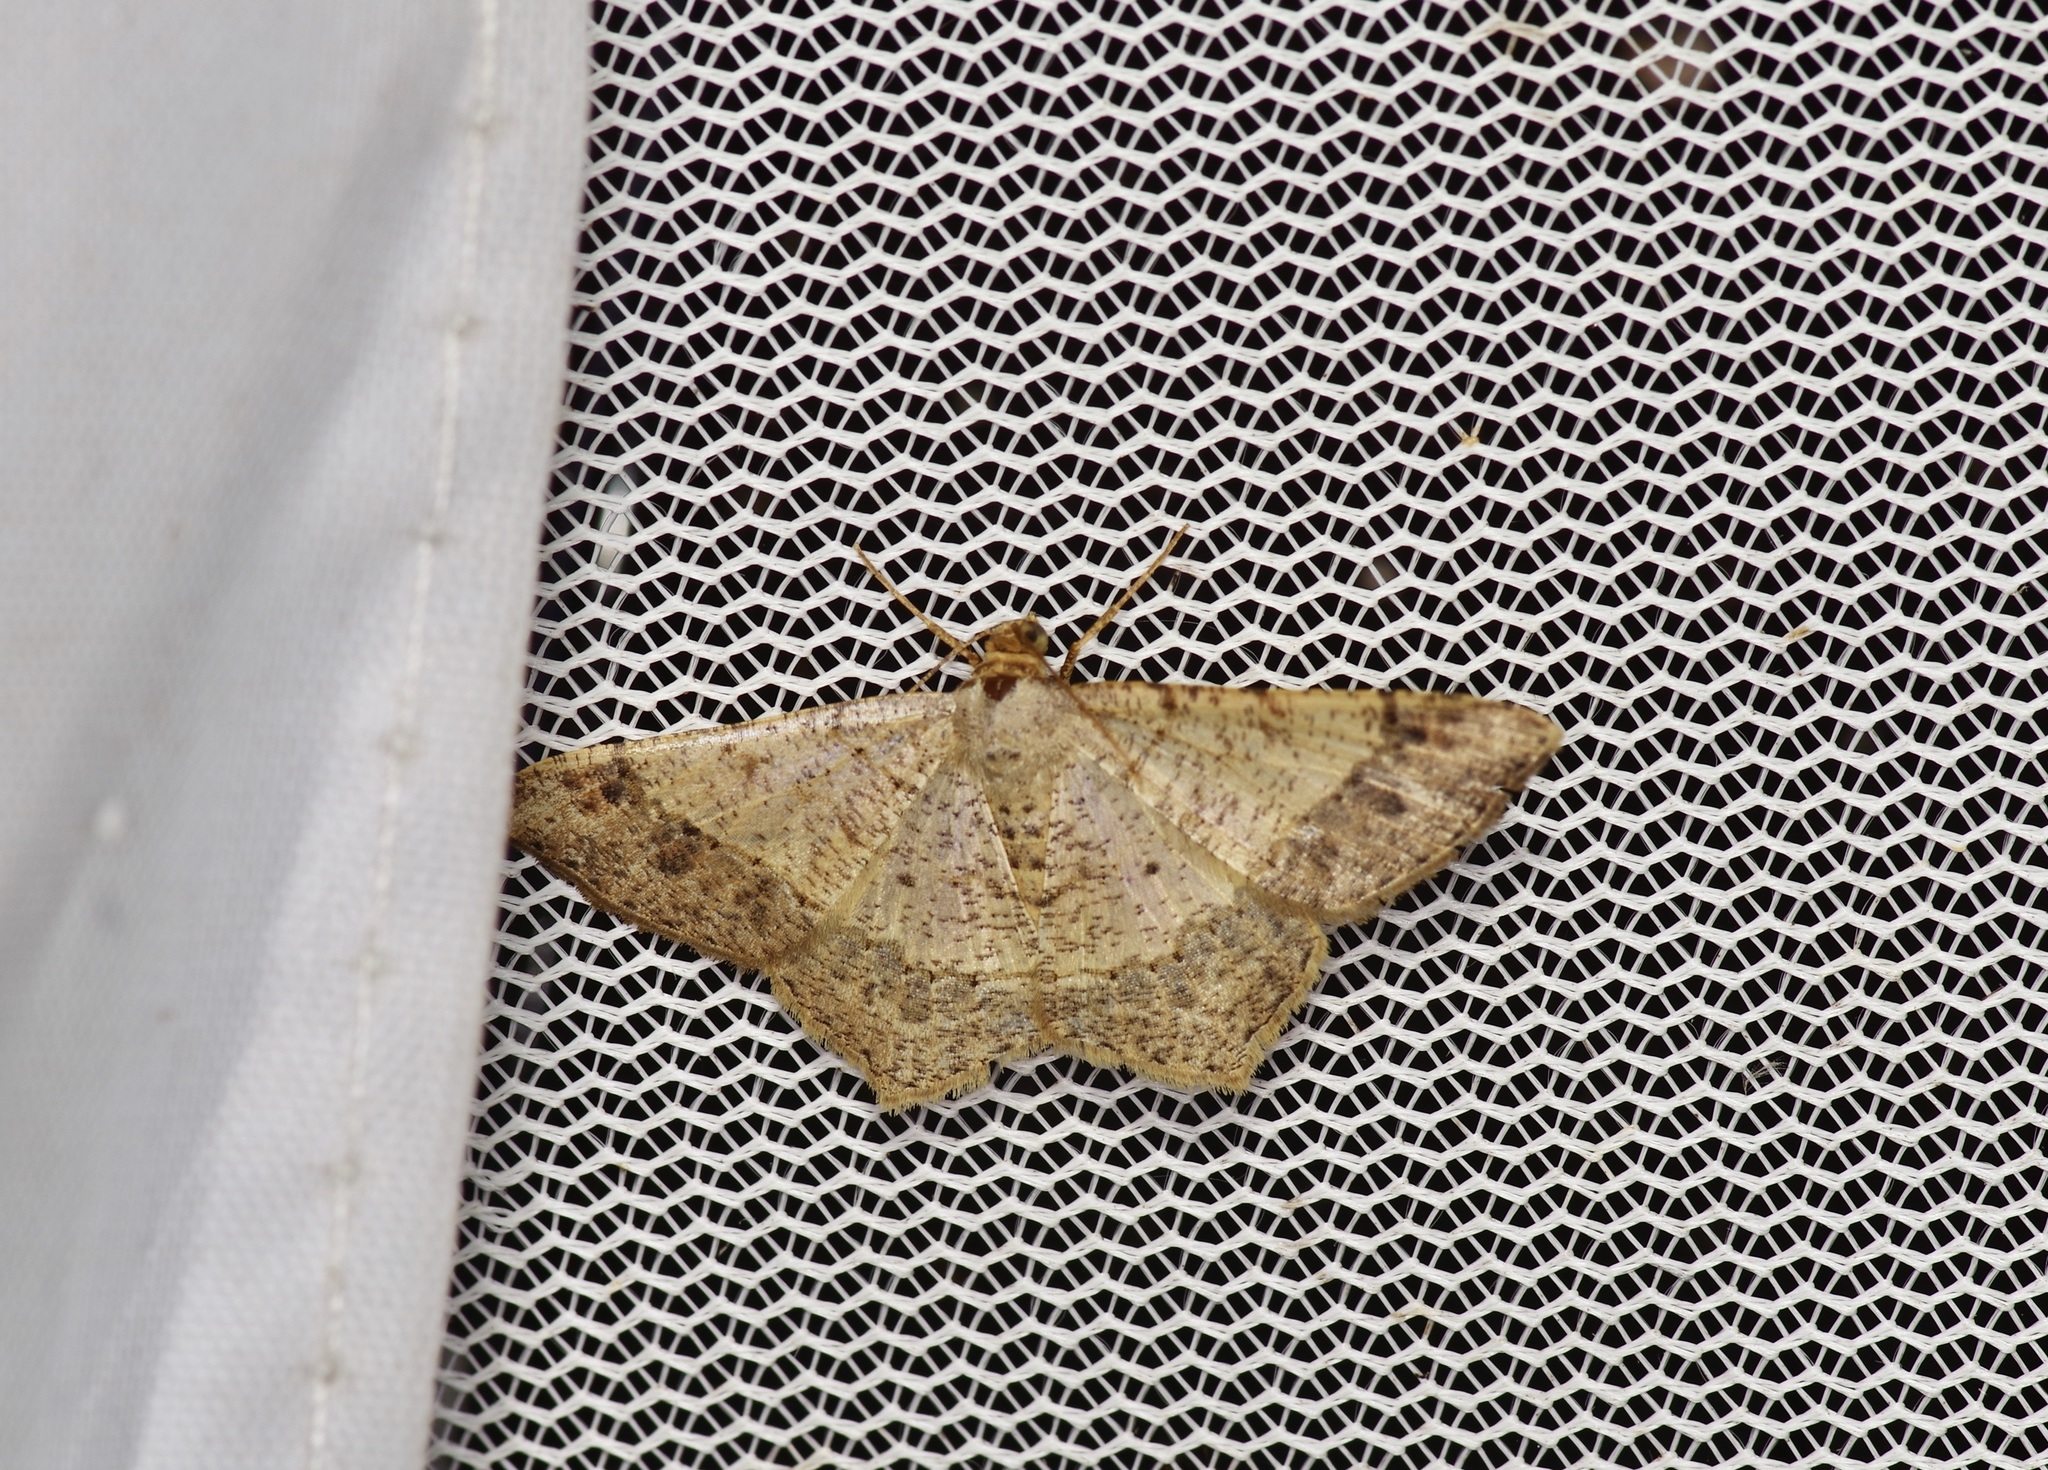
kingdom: Animalia
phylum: Arthropoda
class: Insecta
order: Lepidoptera
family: Geometridae
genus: Macaria
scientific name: Macaria abydata
